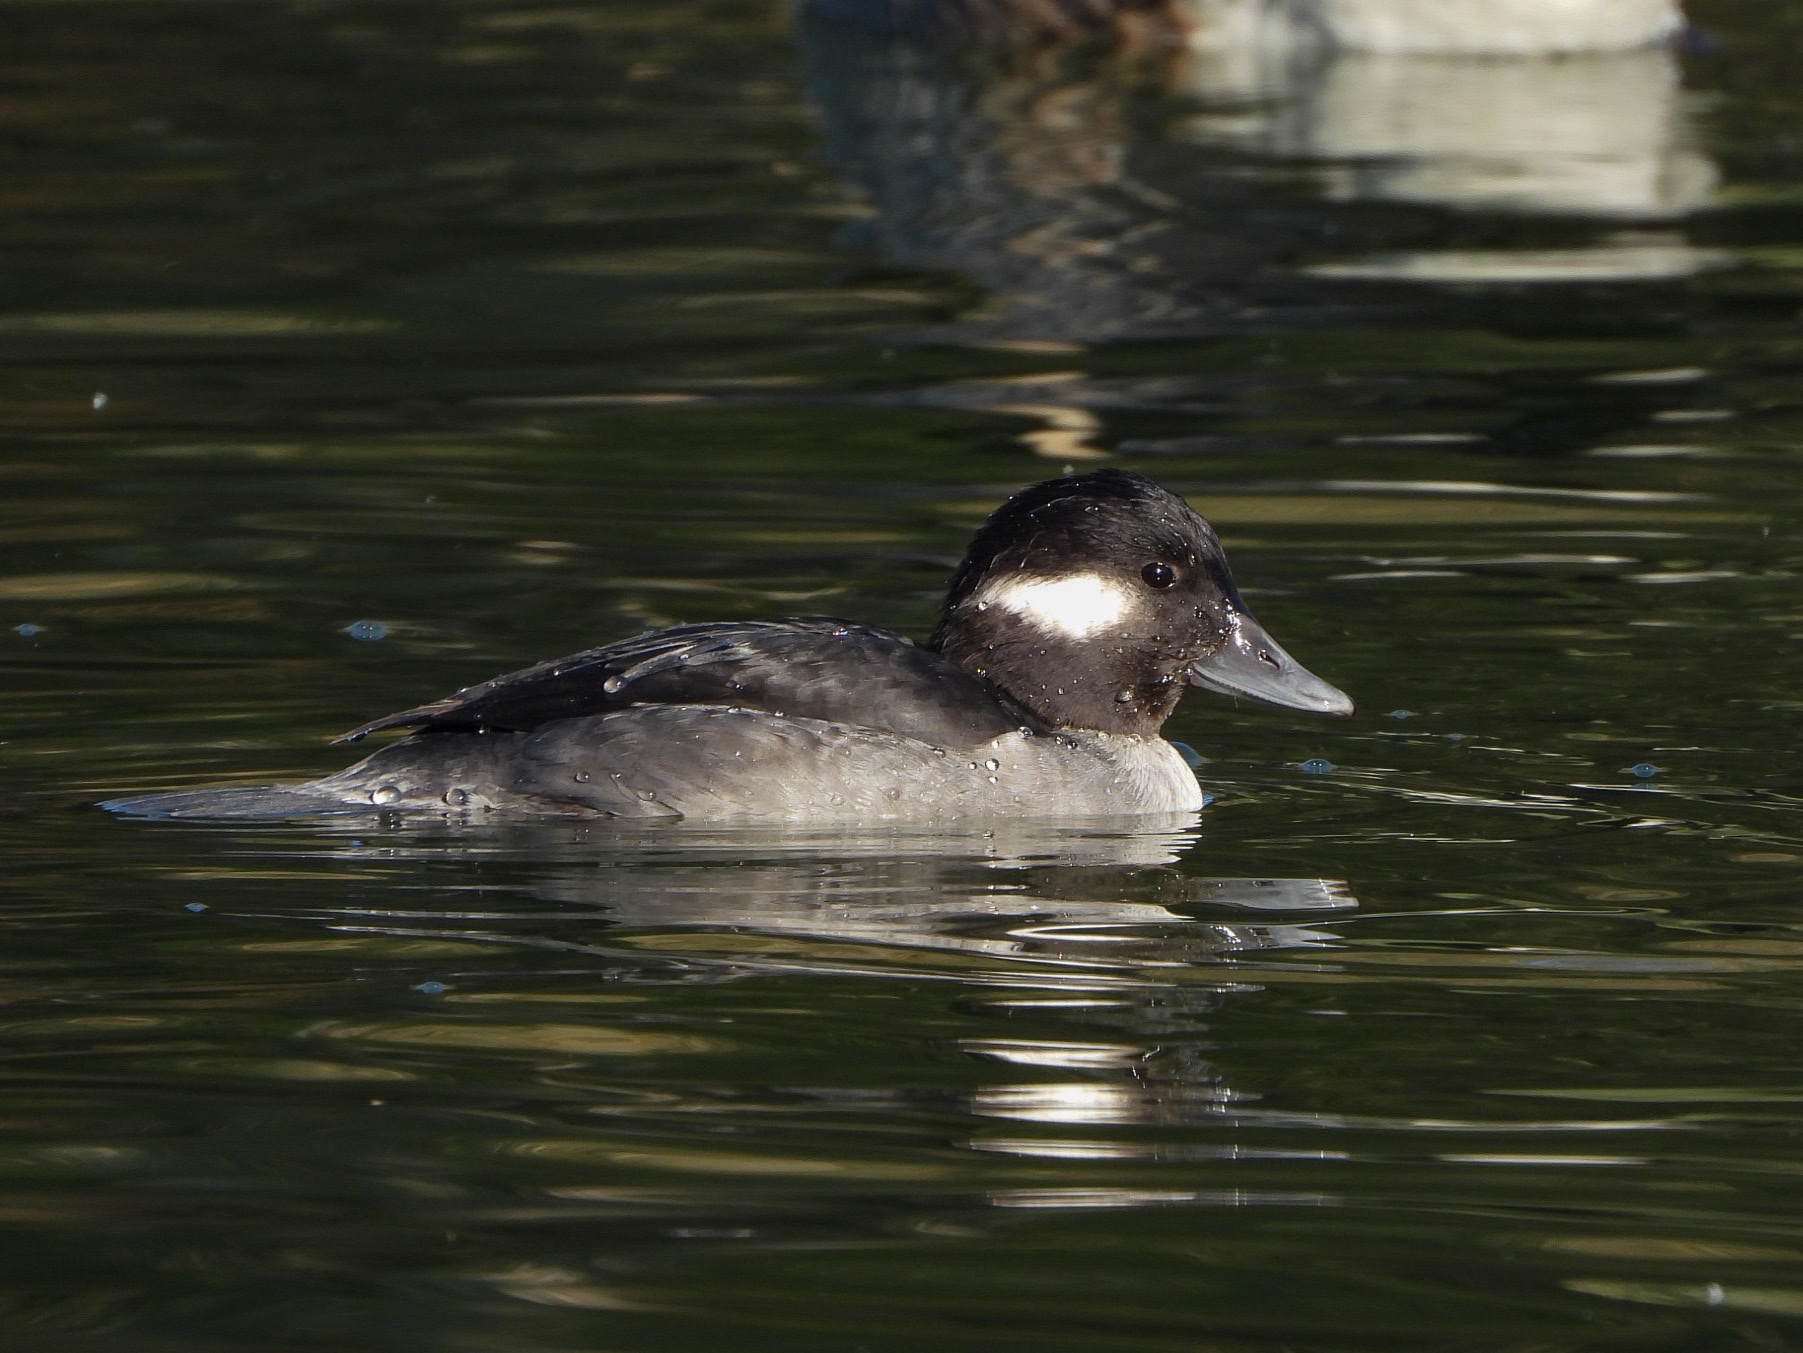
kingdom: Animalia
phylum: Chordata
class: Aves
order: Anseriformes
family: Anatidae
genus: Bucephala
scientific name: Bucephala albeola
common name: Bufflehead
